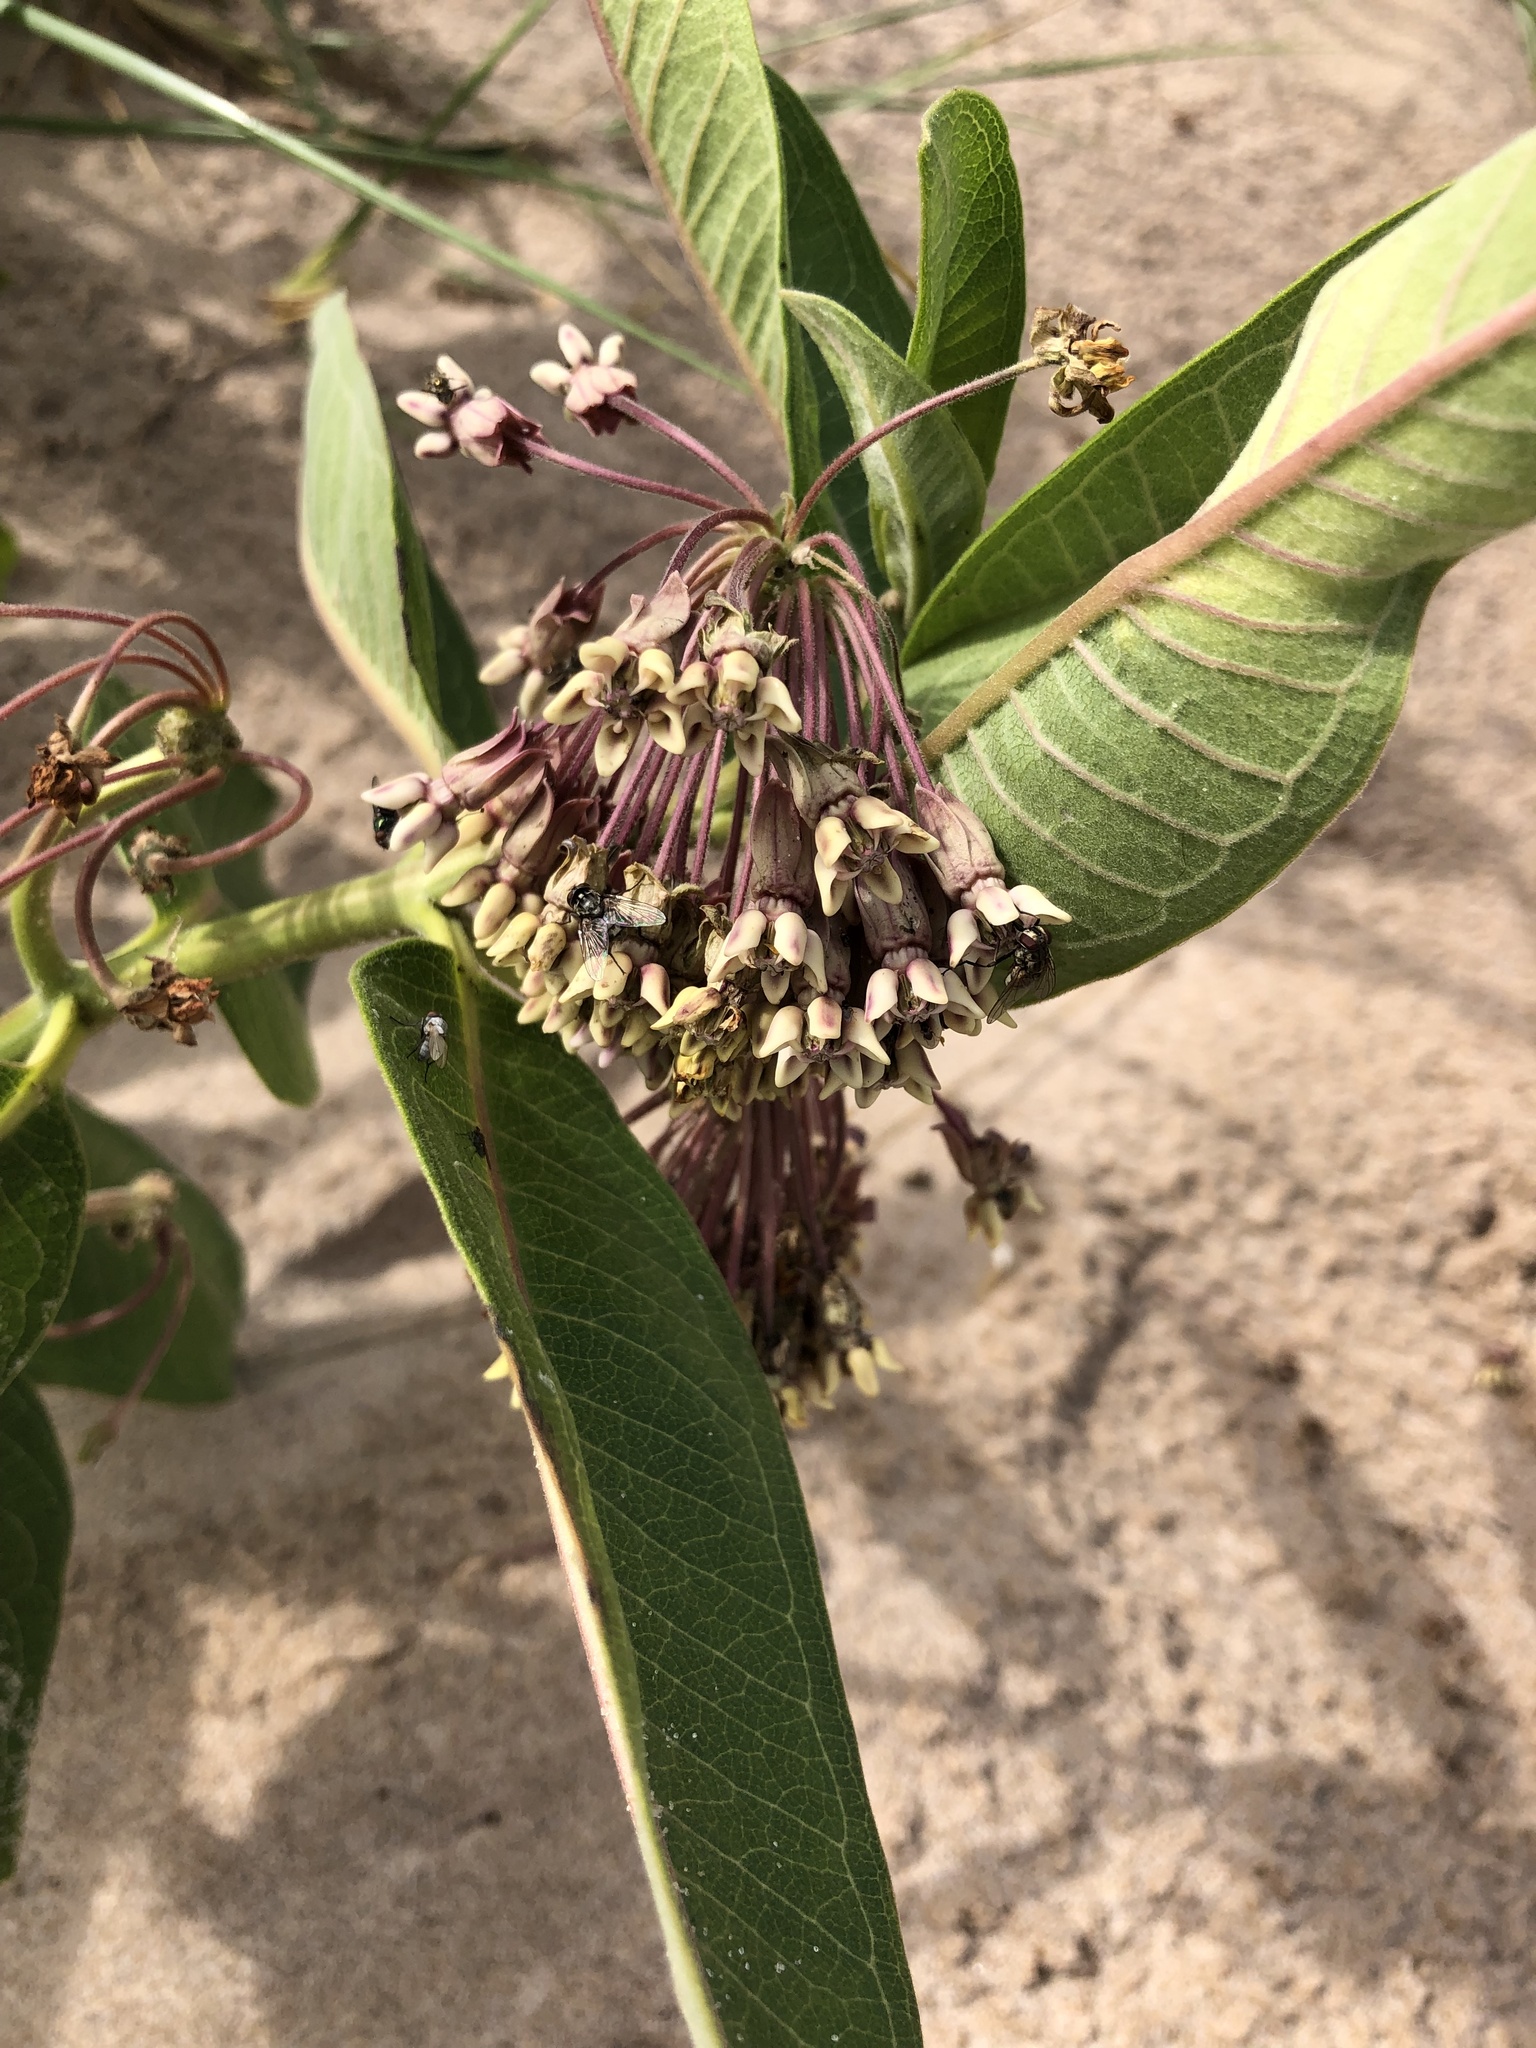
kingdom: Plantae
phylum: Tracheophyta
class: Magnoliopsida
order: Gentianales
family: Apocynaceae
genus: Asclepias
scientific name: Asclepias syriaca
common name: Common milkweed
